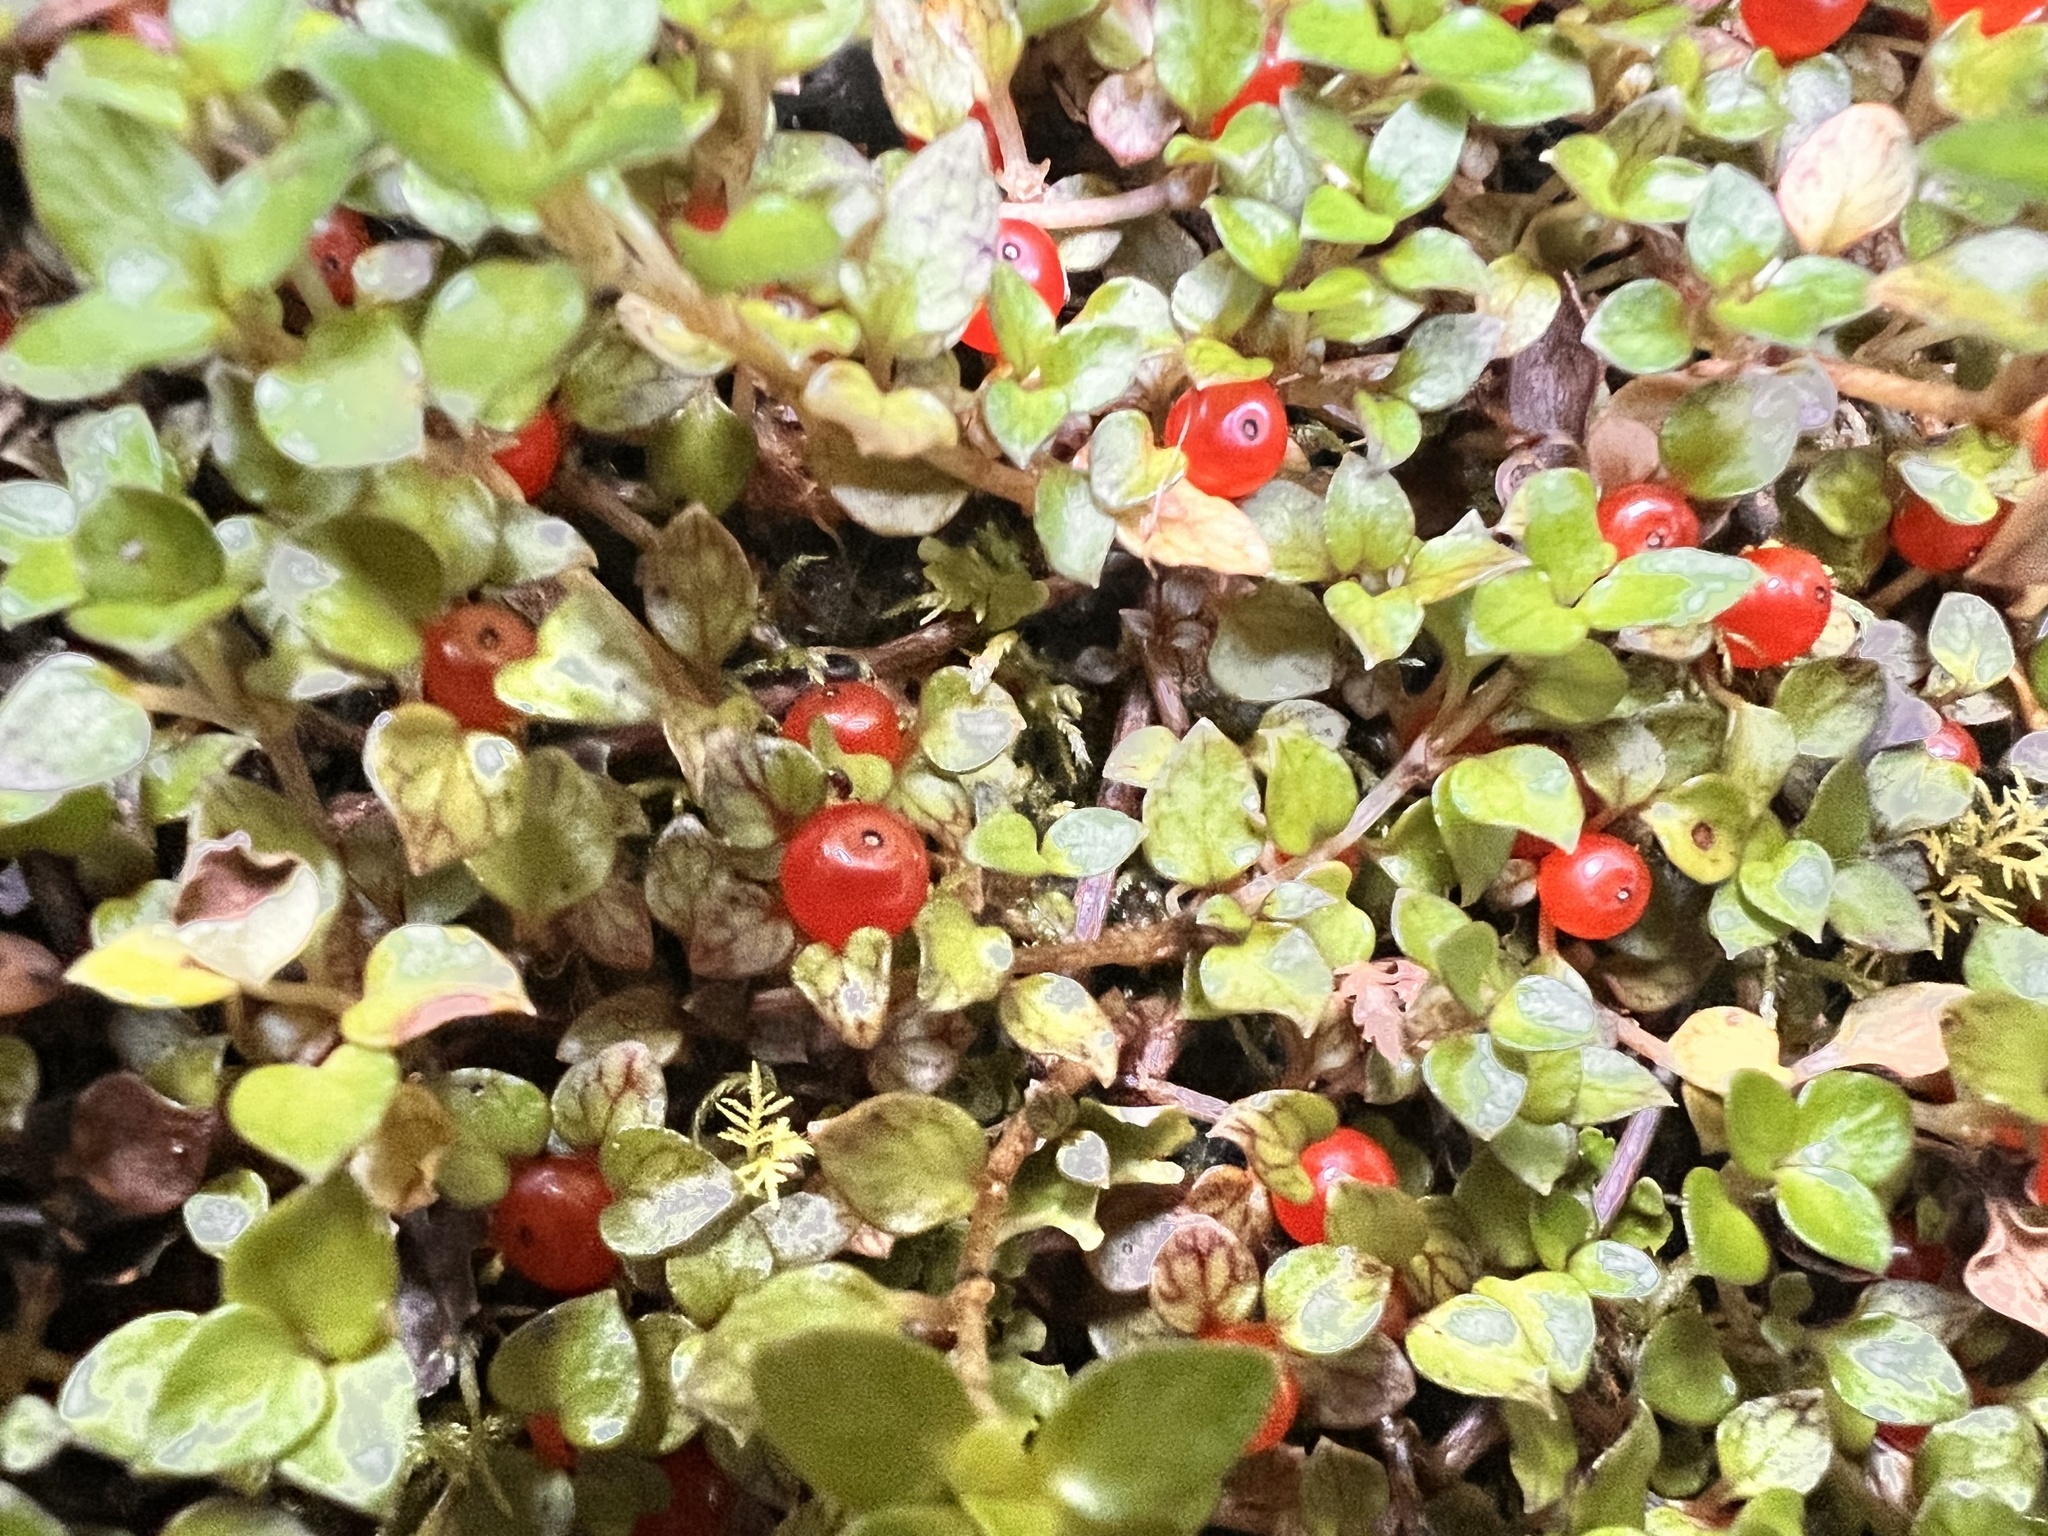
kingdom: Plantae
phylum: Tracheophyta
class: Magnoliopsida
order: Gentianales
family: Rubiaceae
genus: Nertera
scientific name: Nertera granadensis
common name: Beadplant
